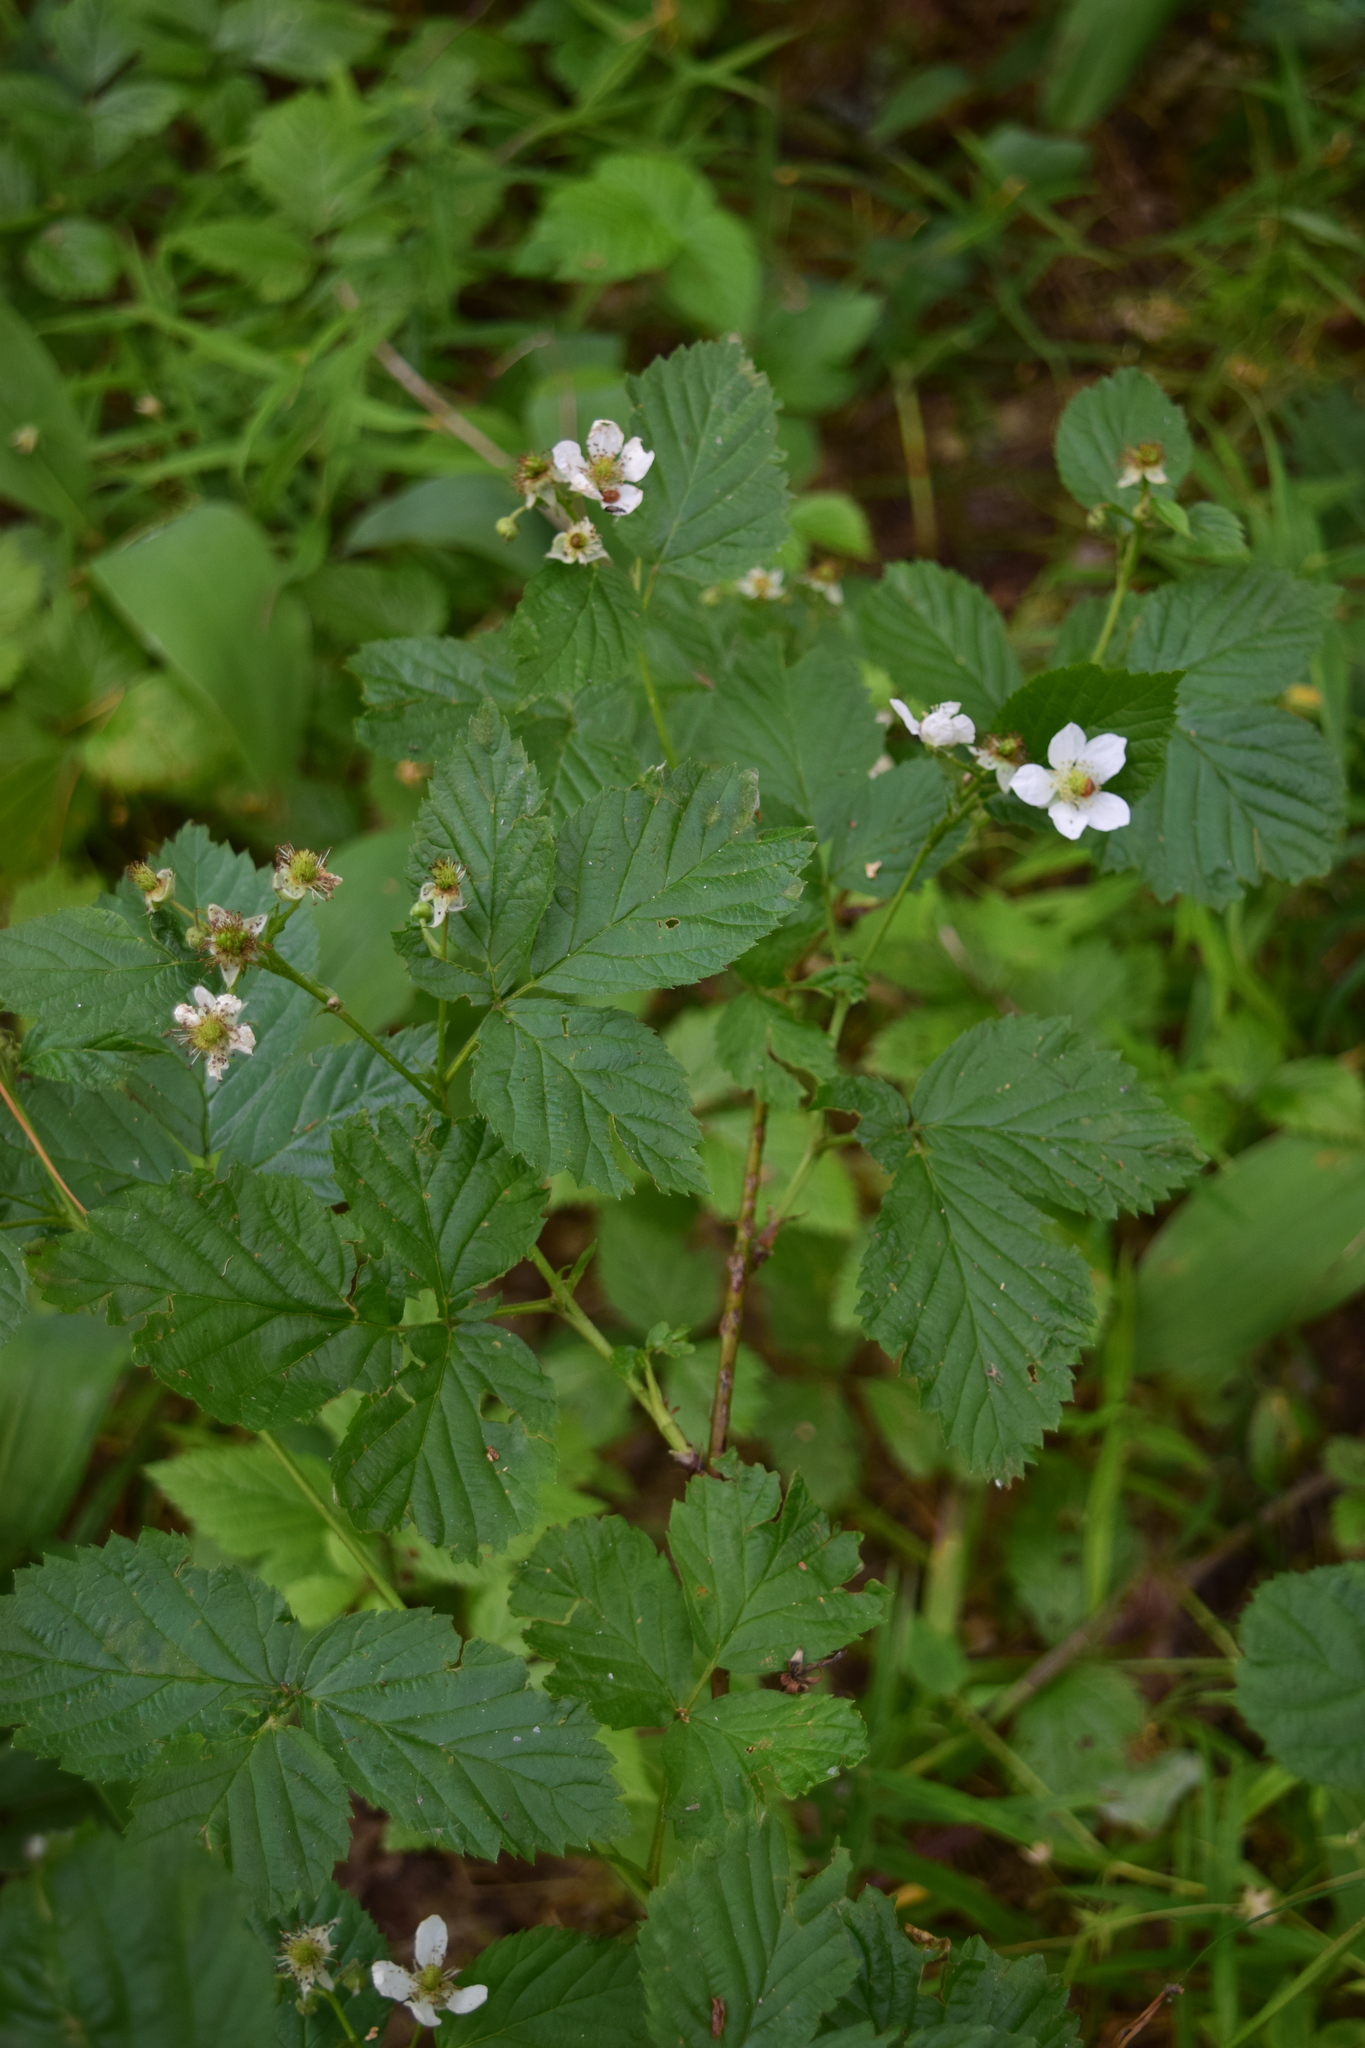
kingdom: Plantae
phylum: Tracheophyta
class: Magnoliopsida
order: Rosales
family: Rosaceae
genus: Rubus
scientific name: Rubus polonicus
